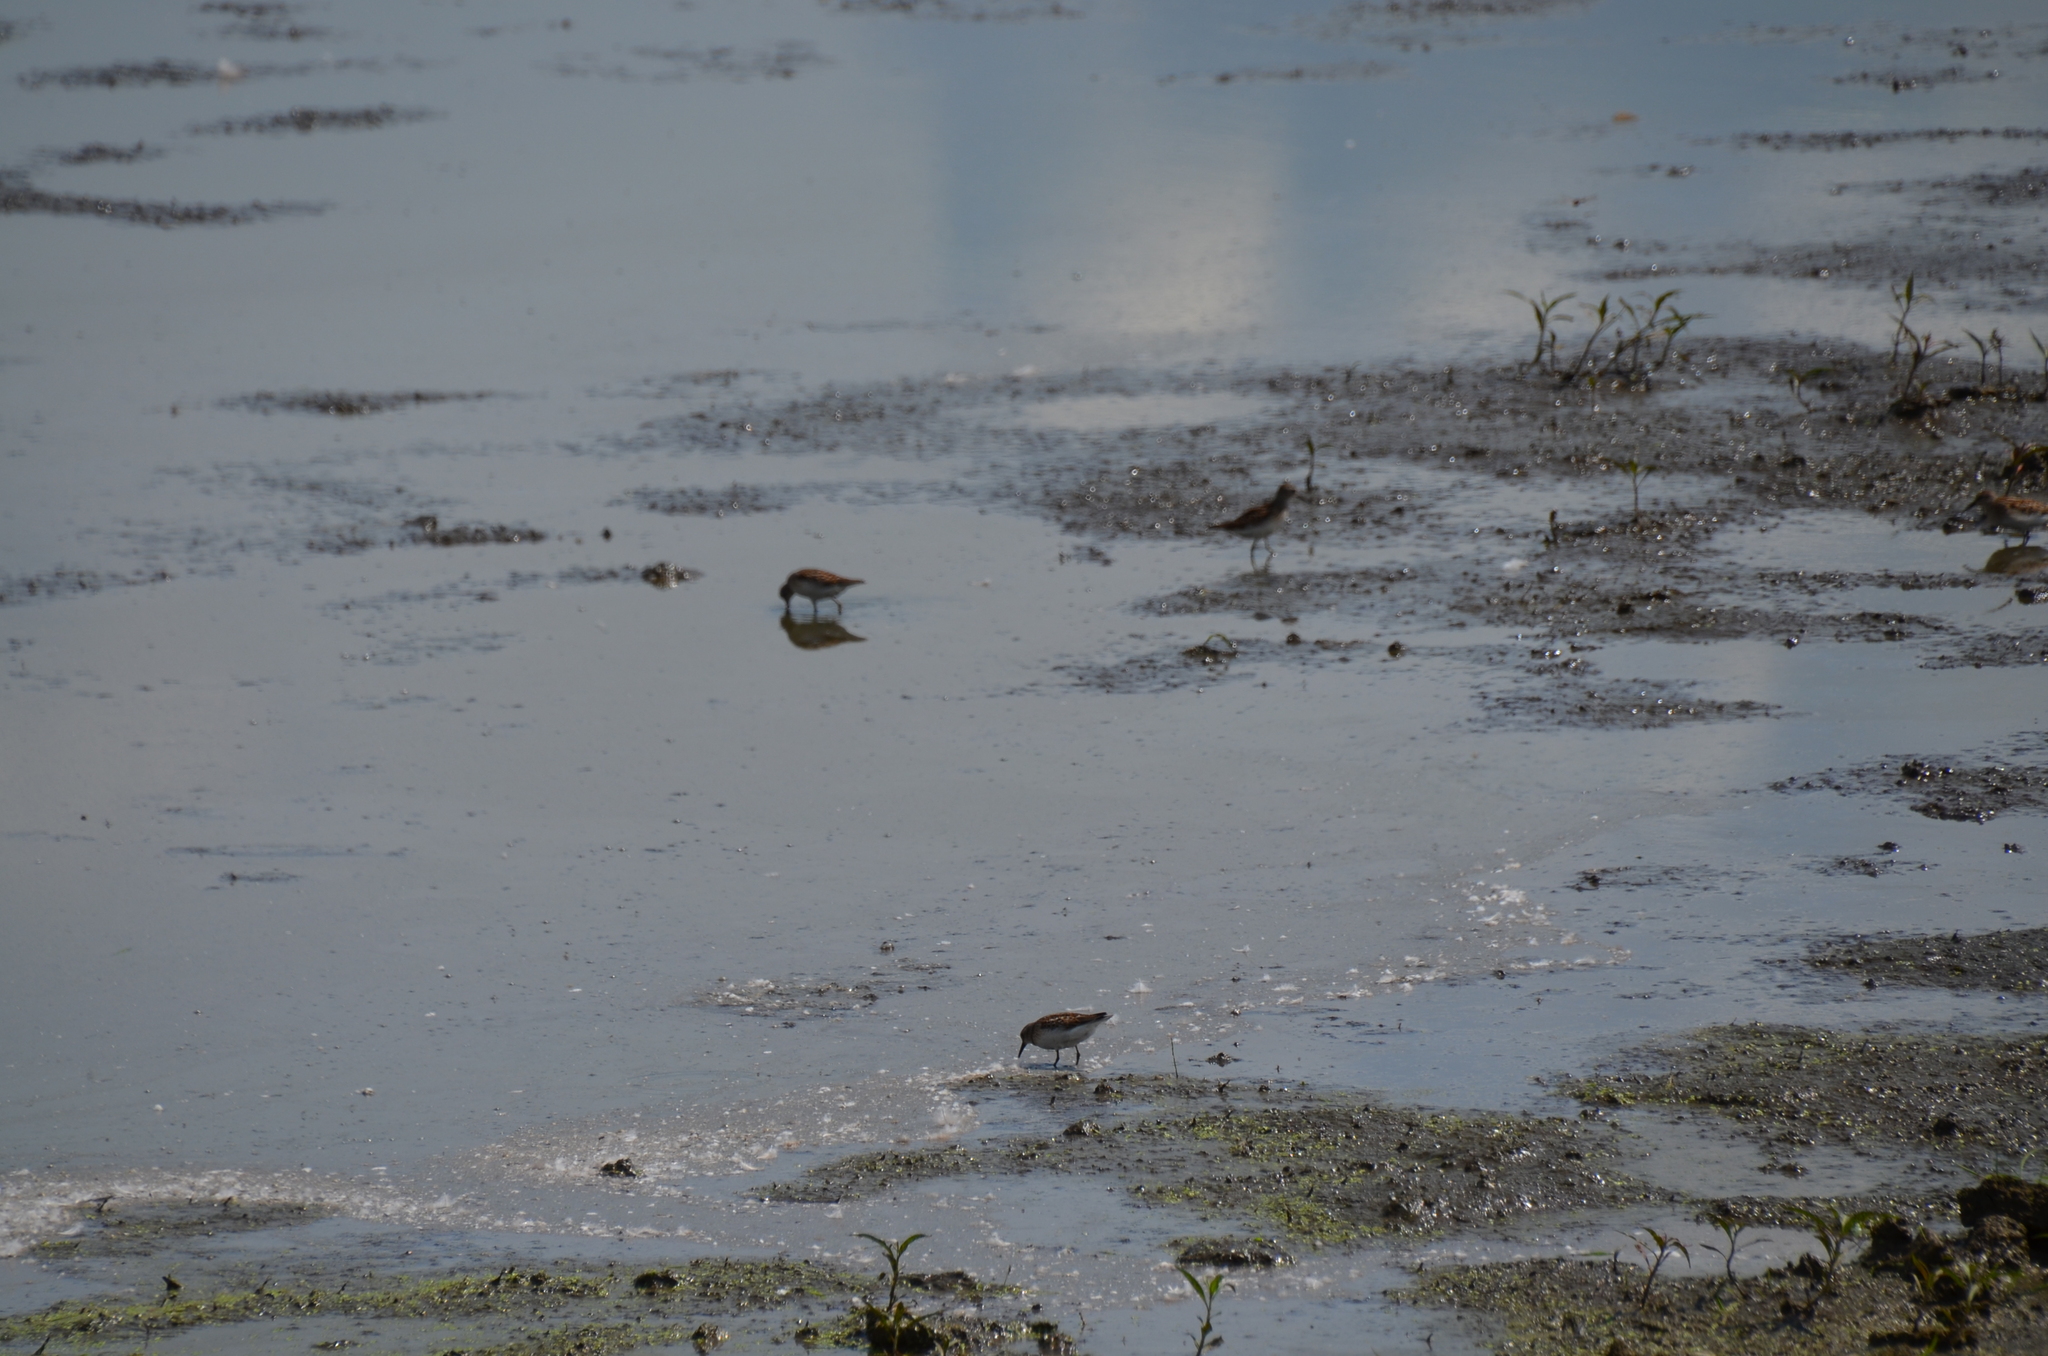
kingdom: Animalia
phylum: Chordata
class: Aves
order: Charadriiformes
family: Scolopacidae
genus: Calidris
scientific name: Calidris minutilla
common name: Least sandpiper
